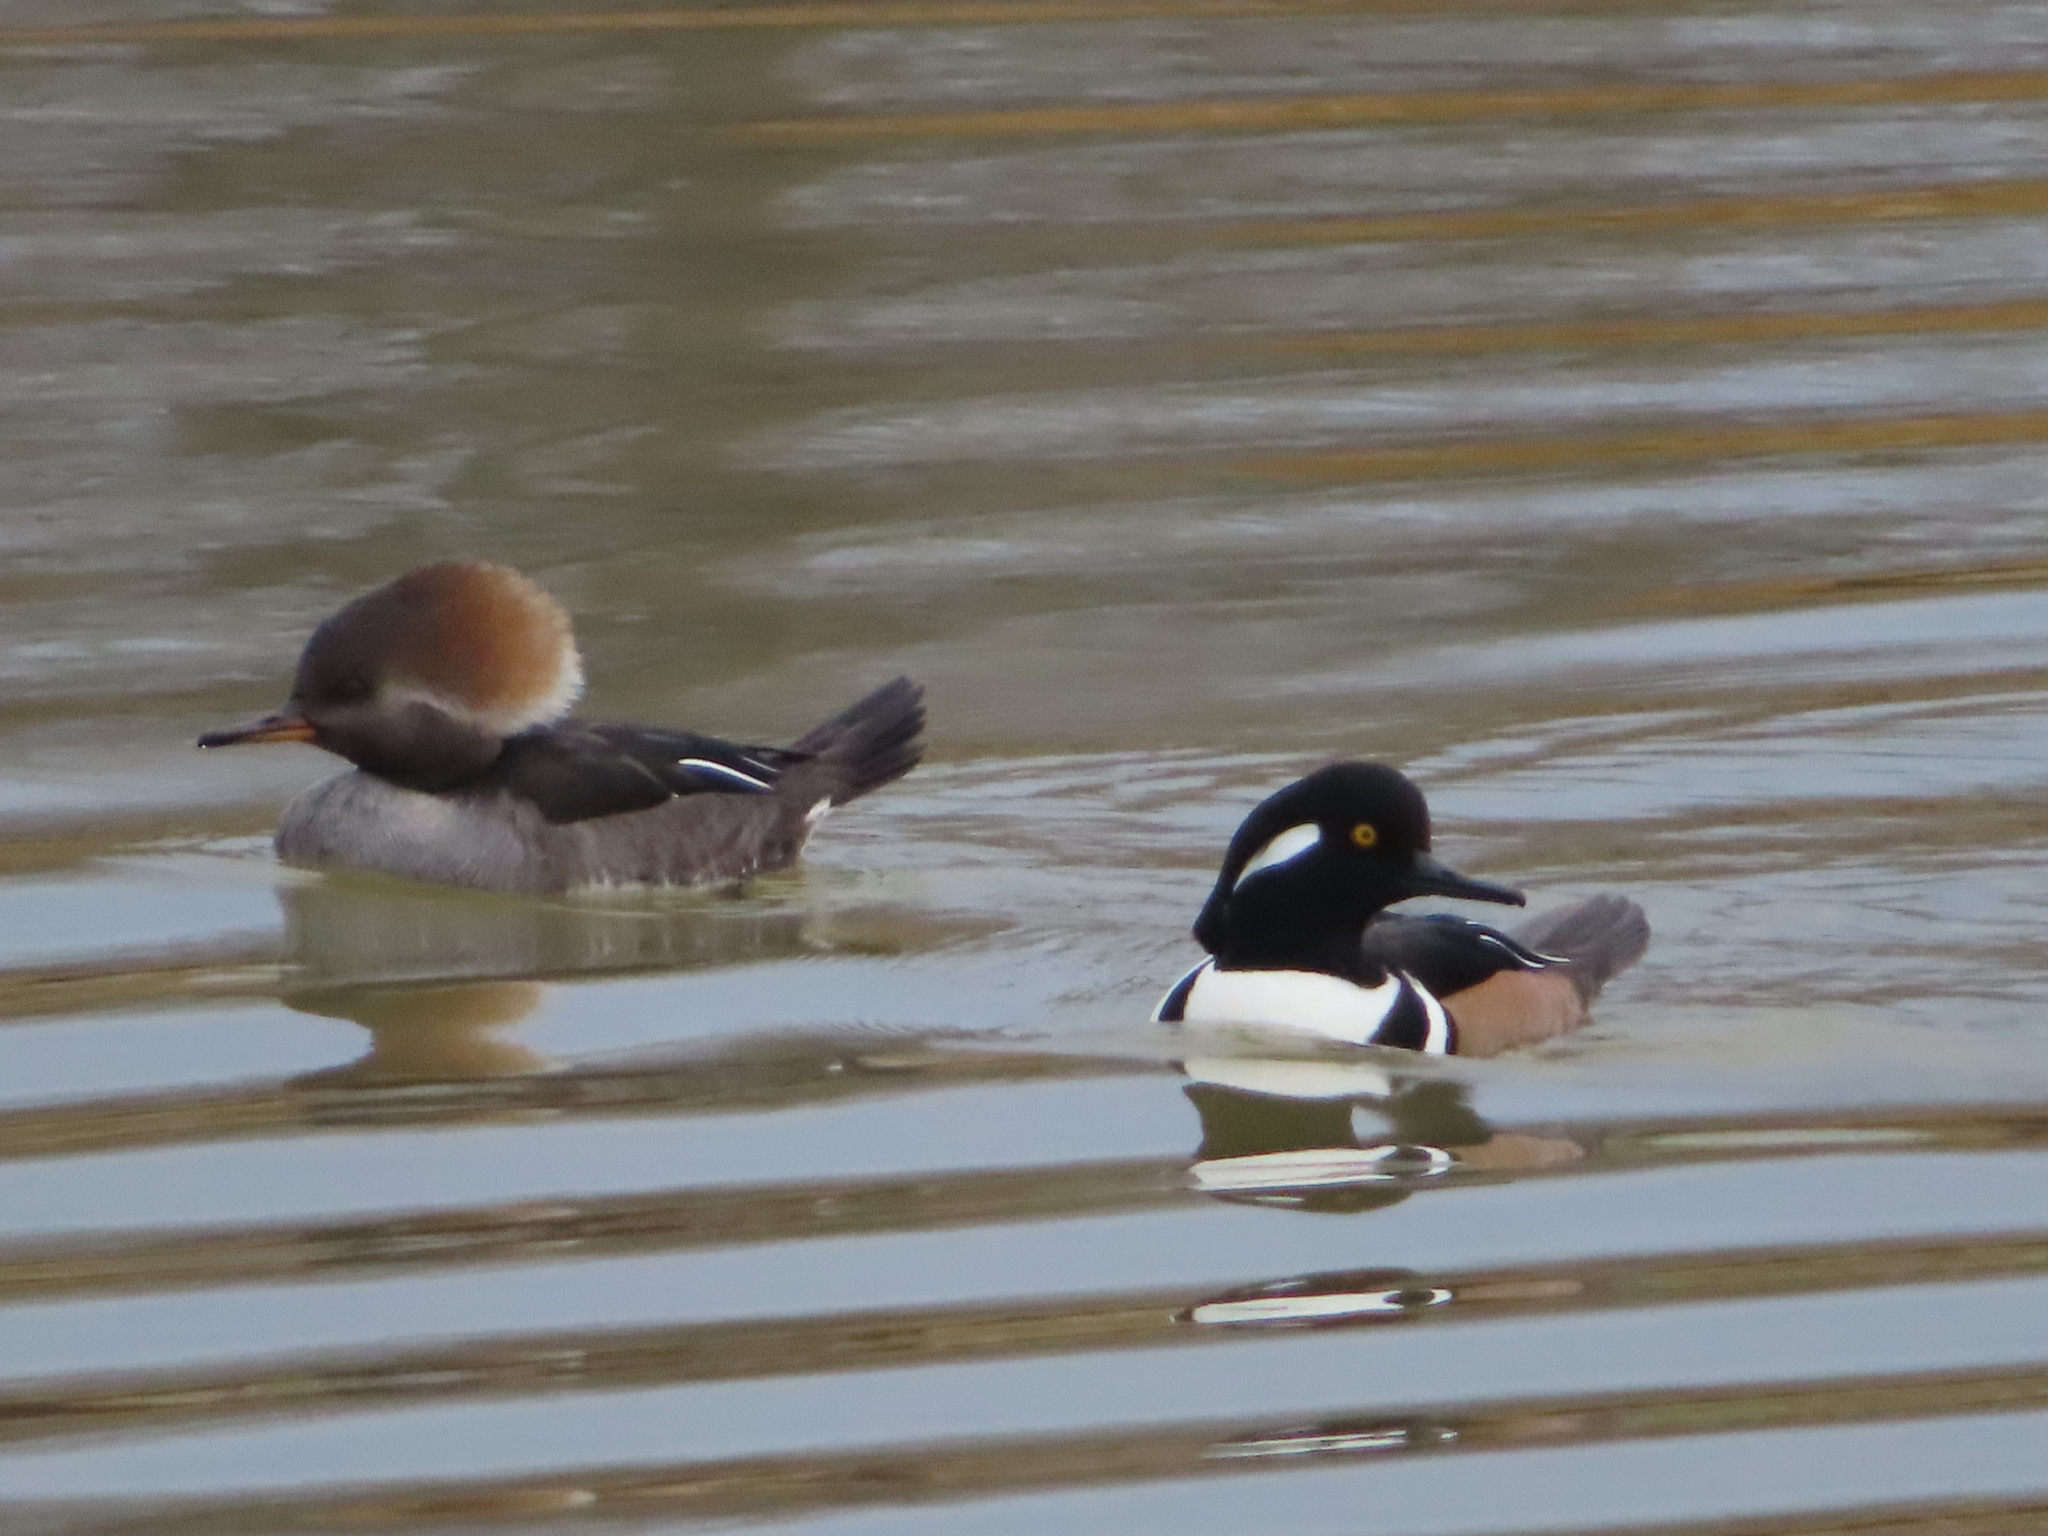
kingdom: Animalia
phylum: Chordata
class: Aves
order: Anseriformes
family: Anatidae
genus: Lophodytes
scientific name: Lophodytes cucullatus
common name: Hooded merganser
